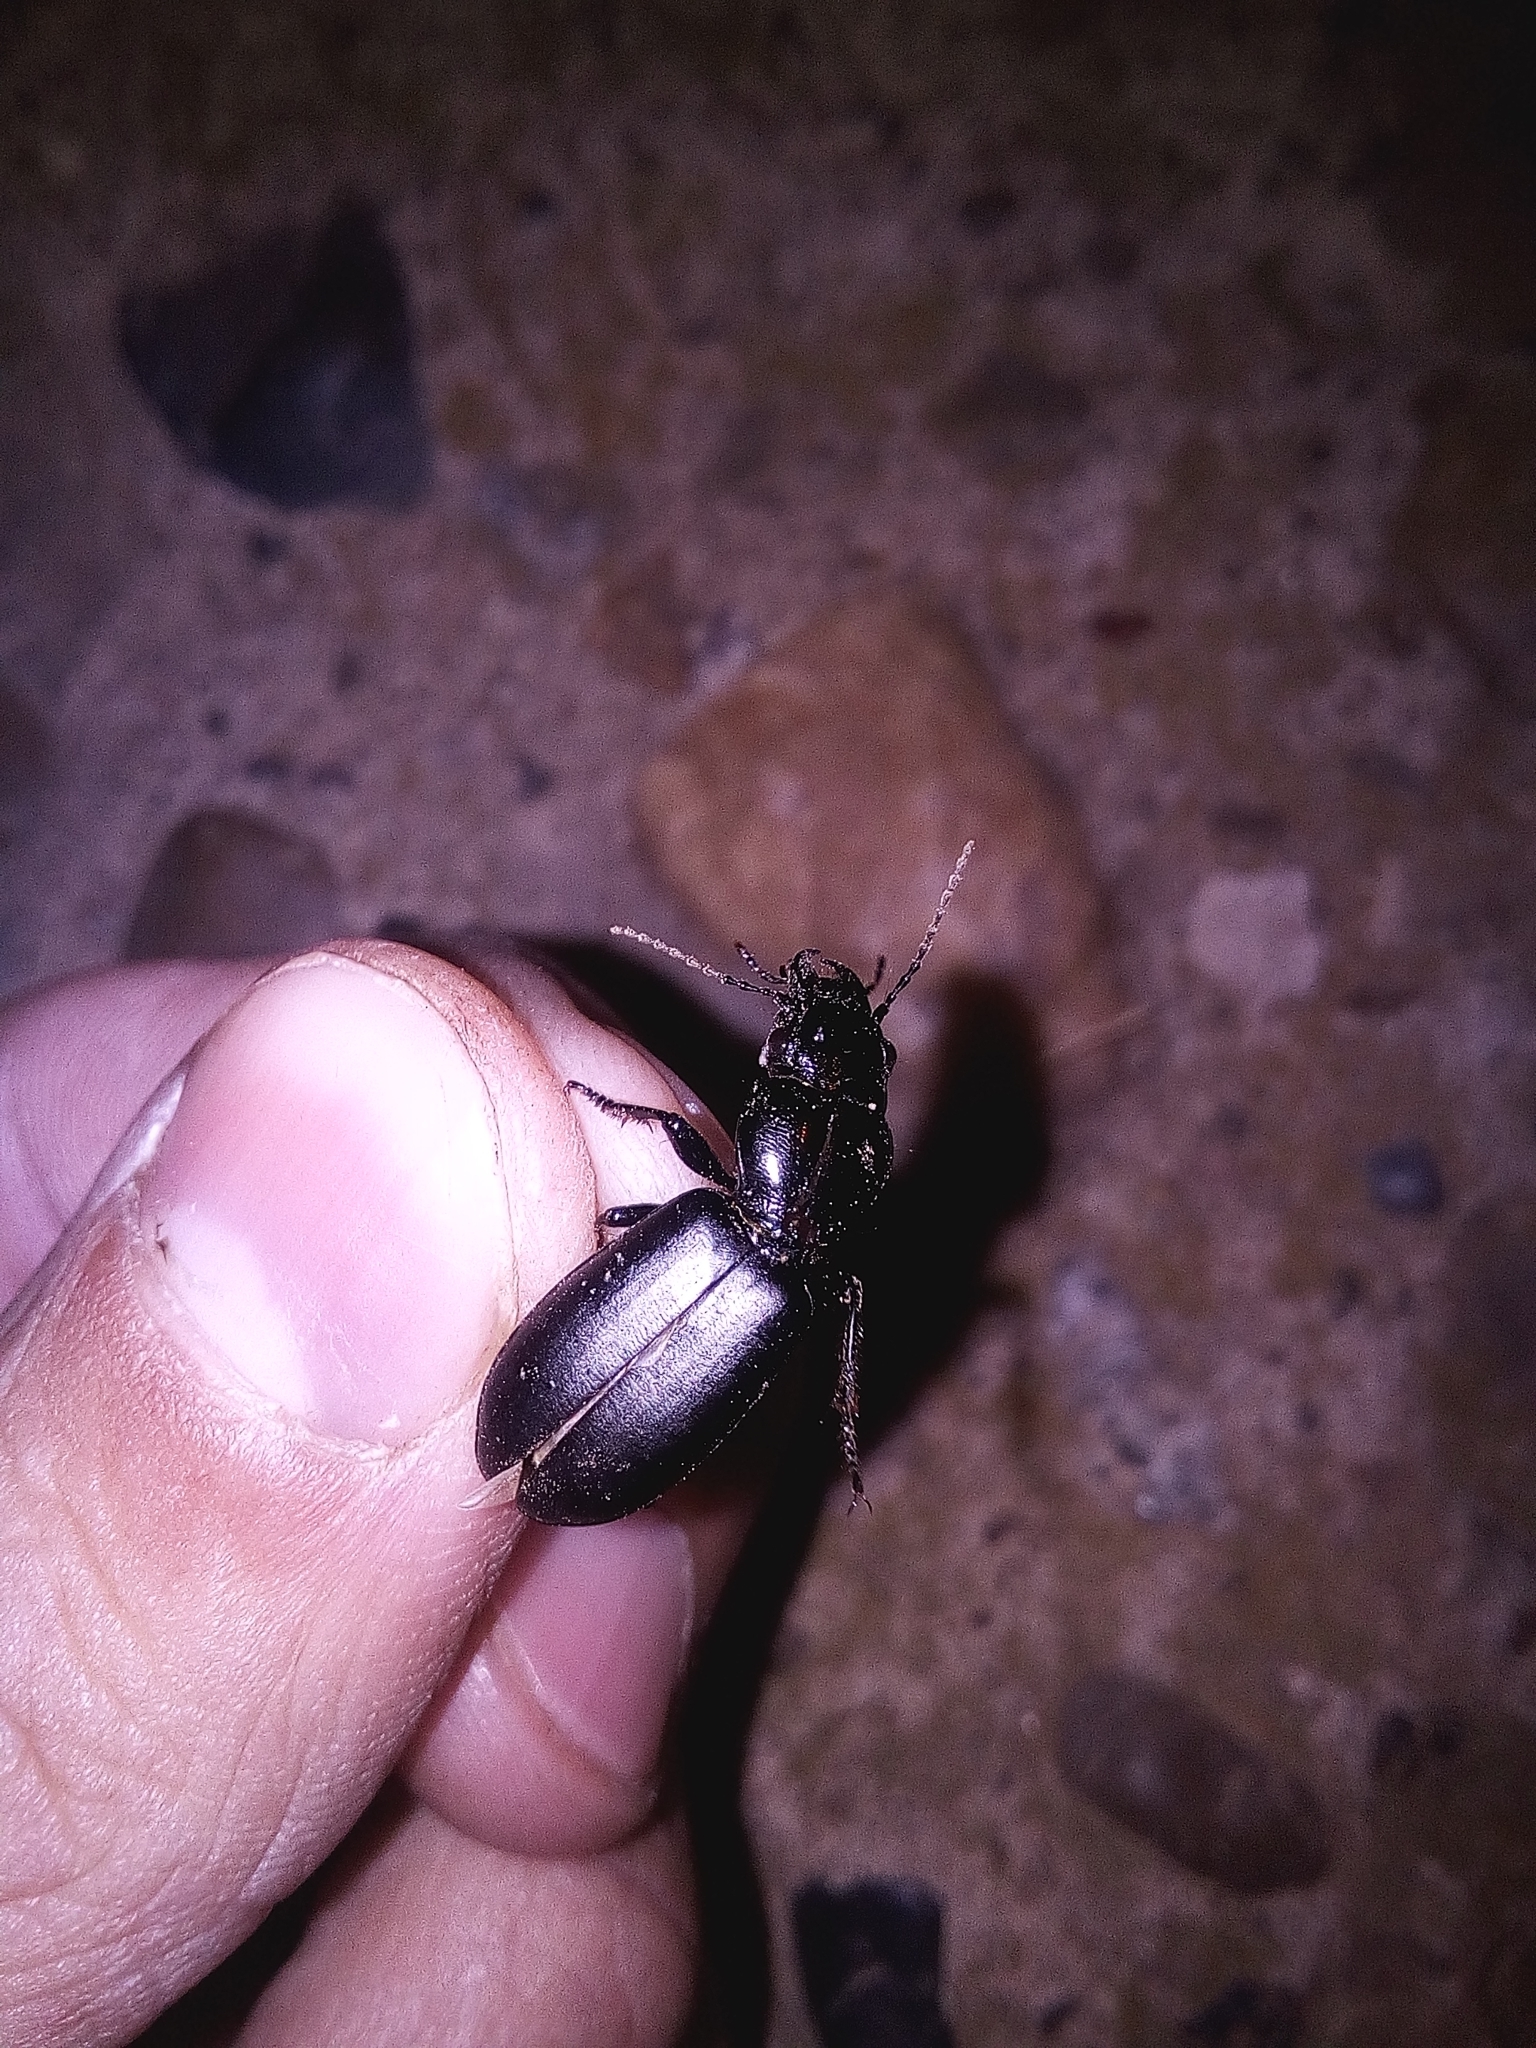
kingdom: Animalia
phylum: Arthropoda
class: Insecta
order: Coleoptera
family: Carabidae
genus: Broscus
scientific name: Broscus cephalotes
